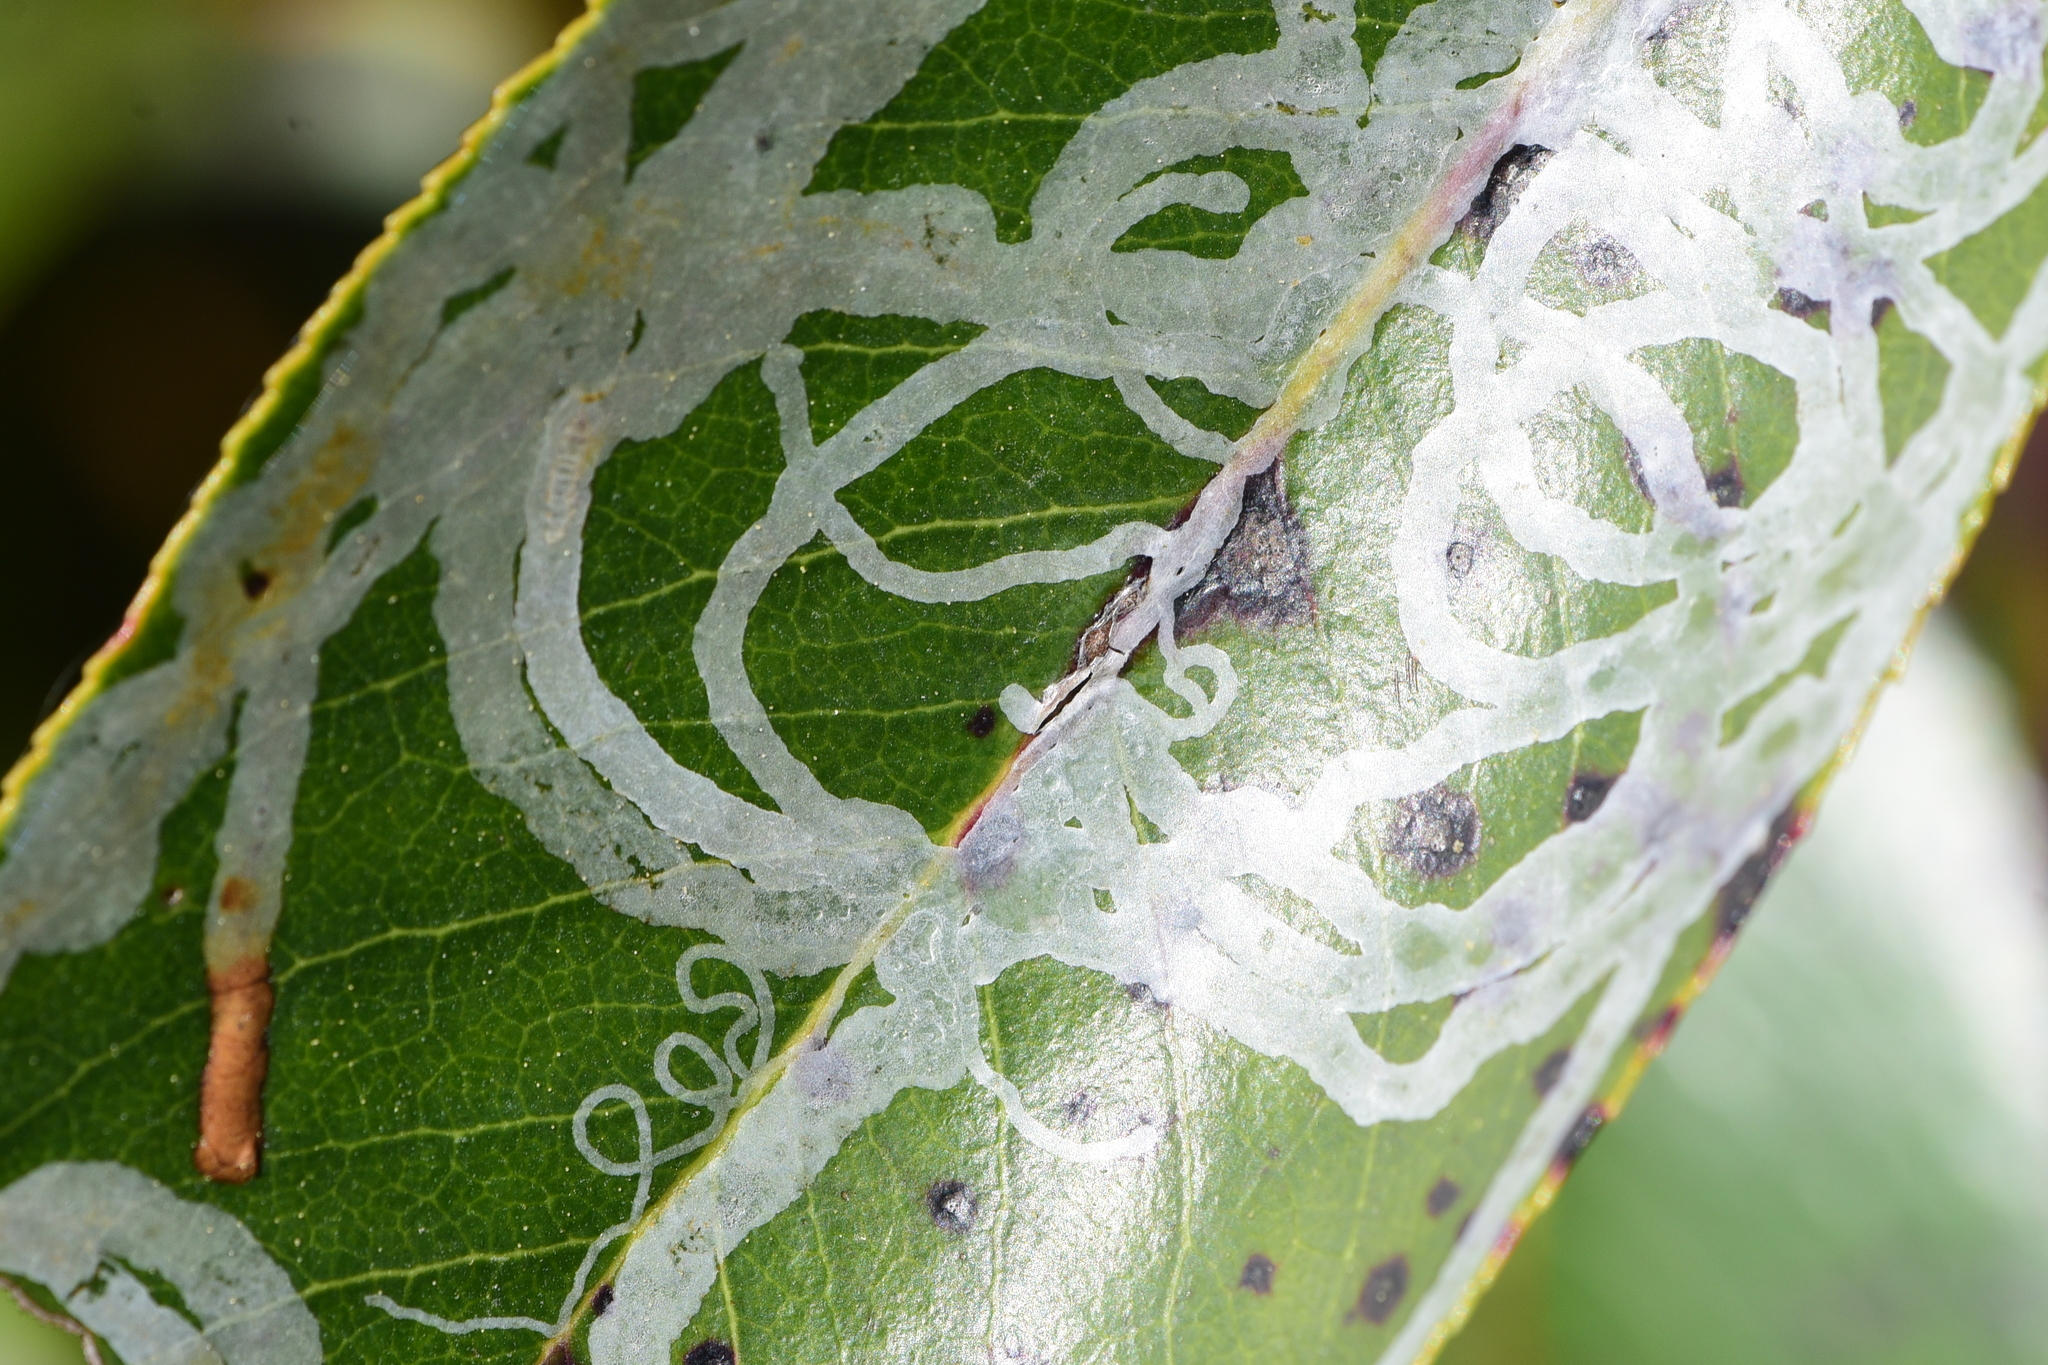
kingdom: Animalia
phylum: Arthropoda
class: Insecta
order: Lepidoptera
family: Gracillariidae
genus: Marmara
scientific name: Marmara arbutiella
